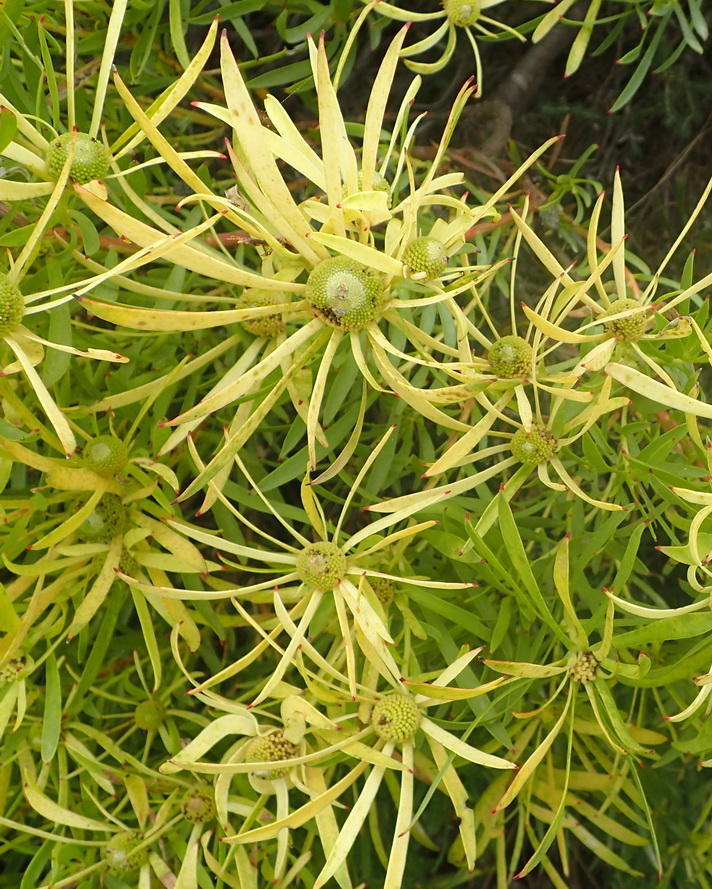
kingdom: Plantae
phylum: Tracheophyta
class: Magnoliopsida
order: Proteales
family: Proteaceae
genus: Leucadendron
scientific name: Leucadendron salignum
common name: Common sunshine conebush
